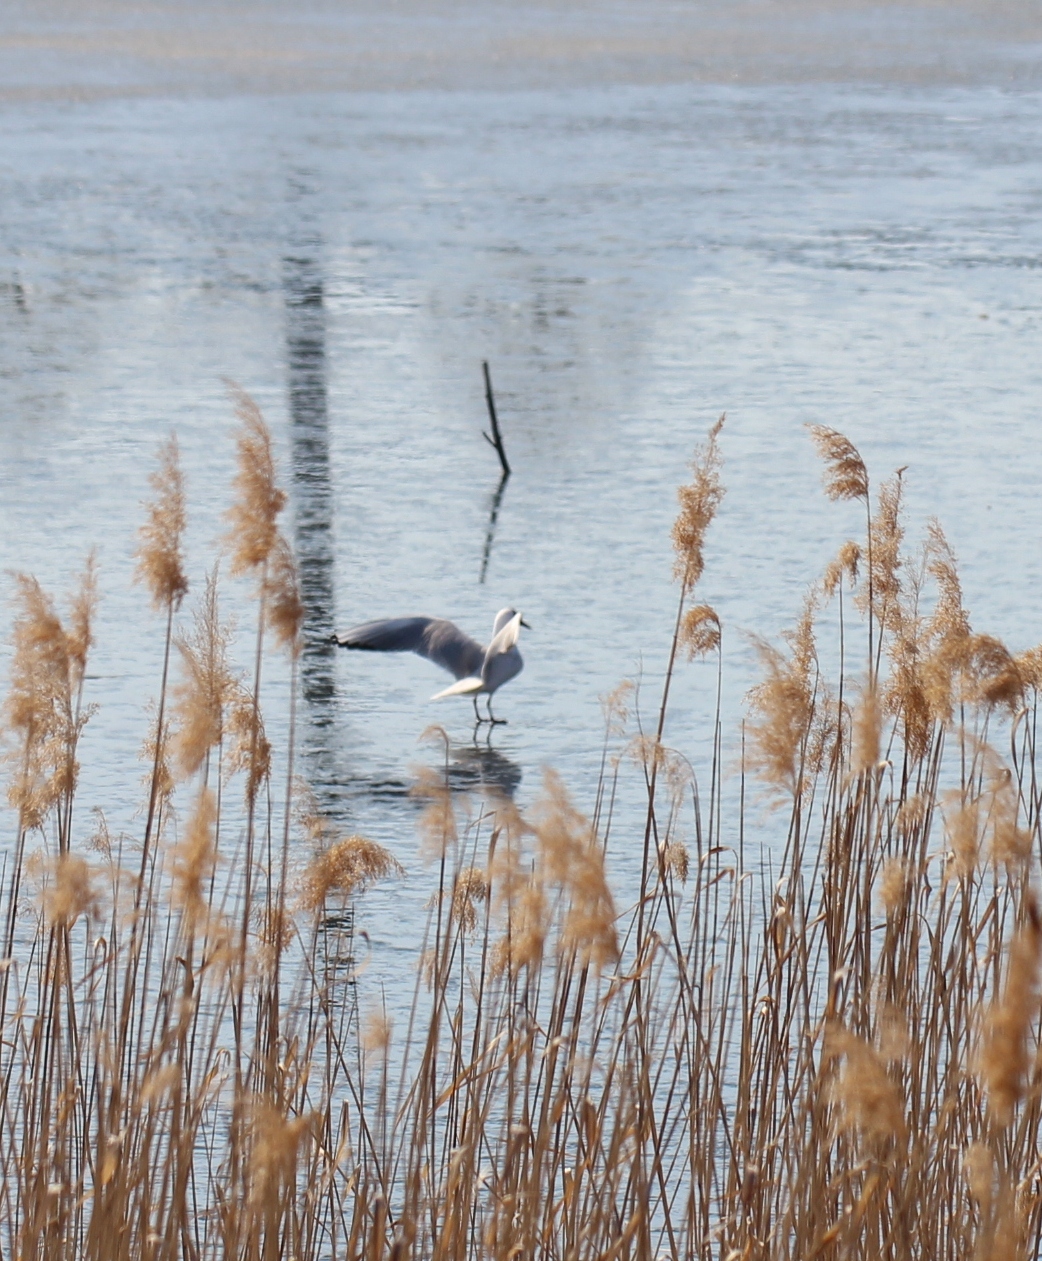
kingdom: Animalia
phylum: Chordata
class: Aves
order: Charadriiformes
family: Laridae
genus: Larus
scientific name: Larus canus
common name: Mew gull
